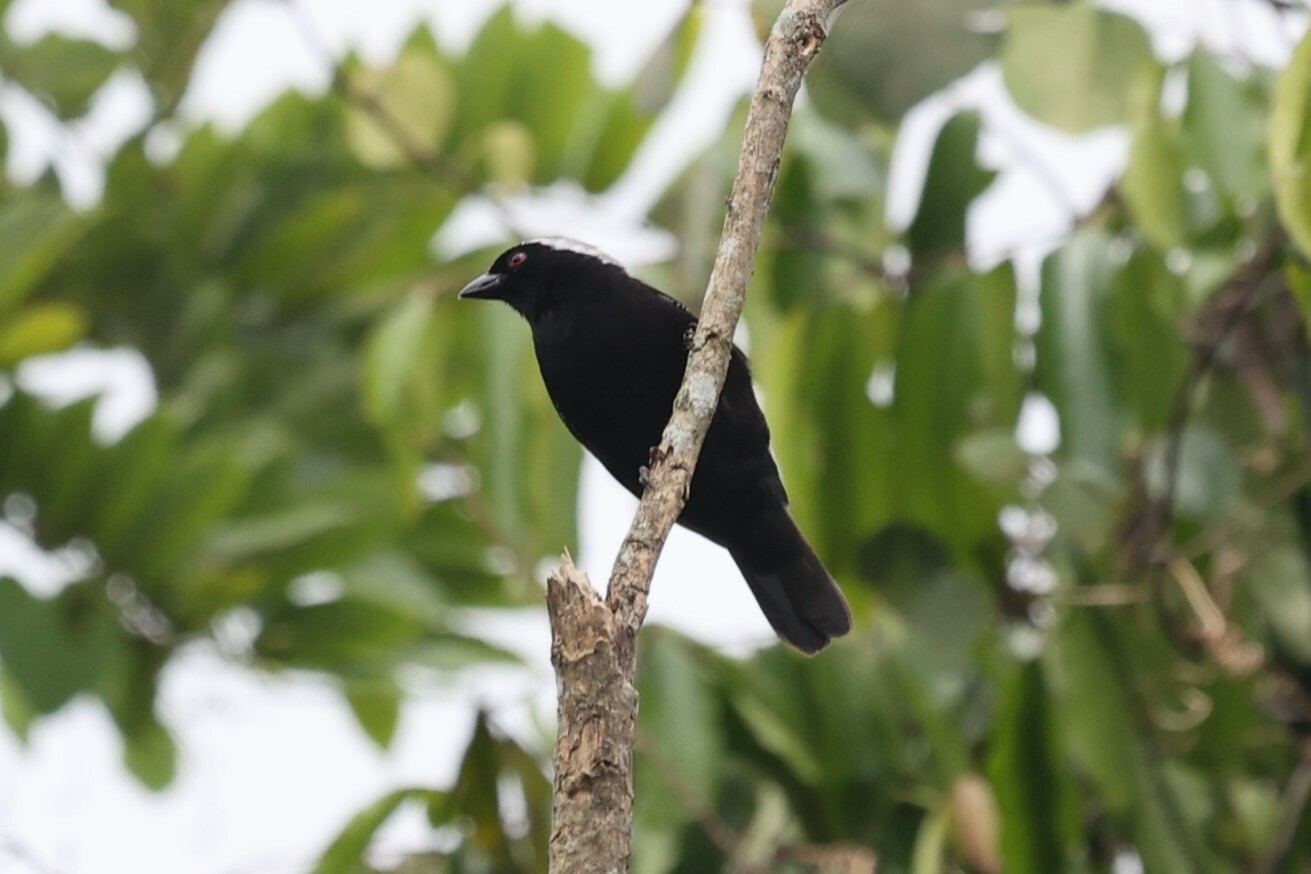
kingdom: Animalia
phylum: Chordata
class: Aves
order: Passeriformes
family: Estrildidae
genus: Nigrita
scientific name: Nigrita canicapillus
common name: Grey-headed nigrita
